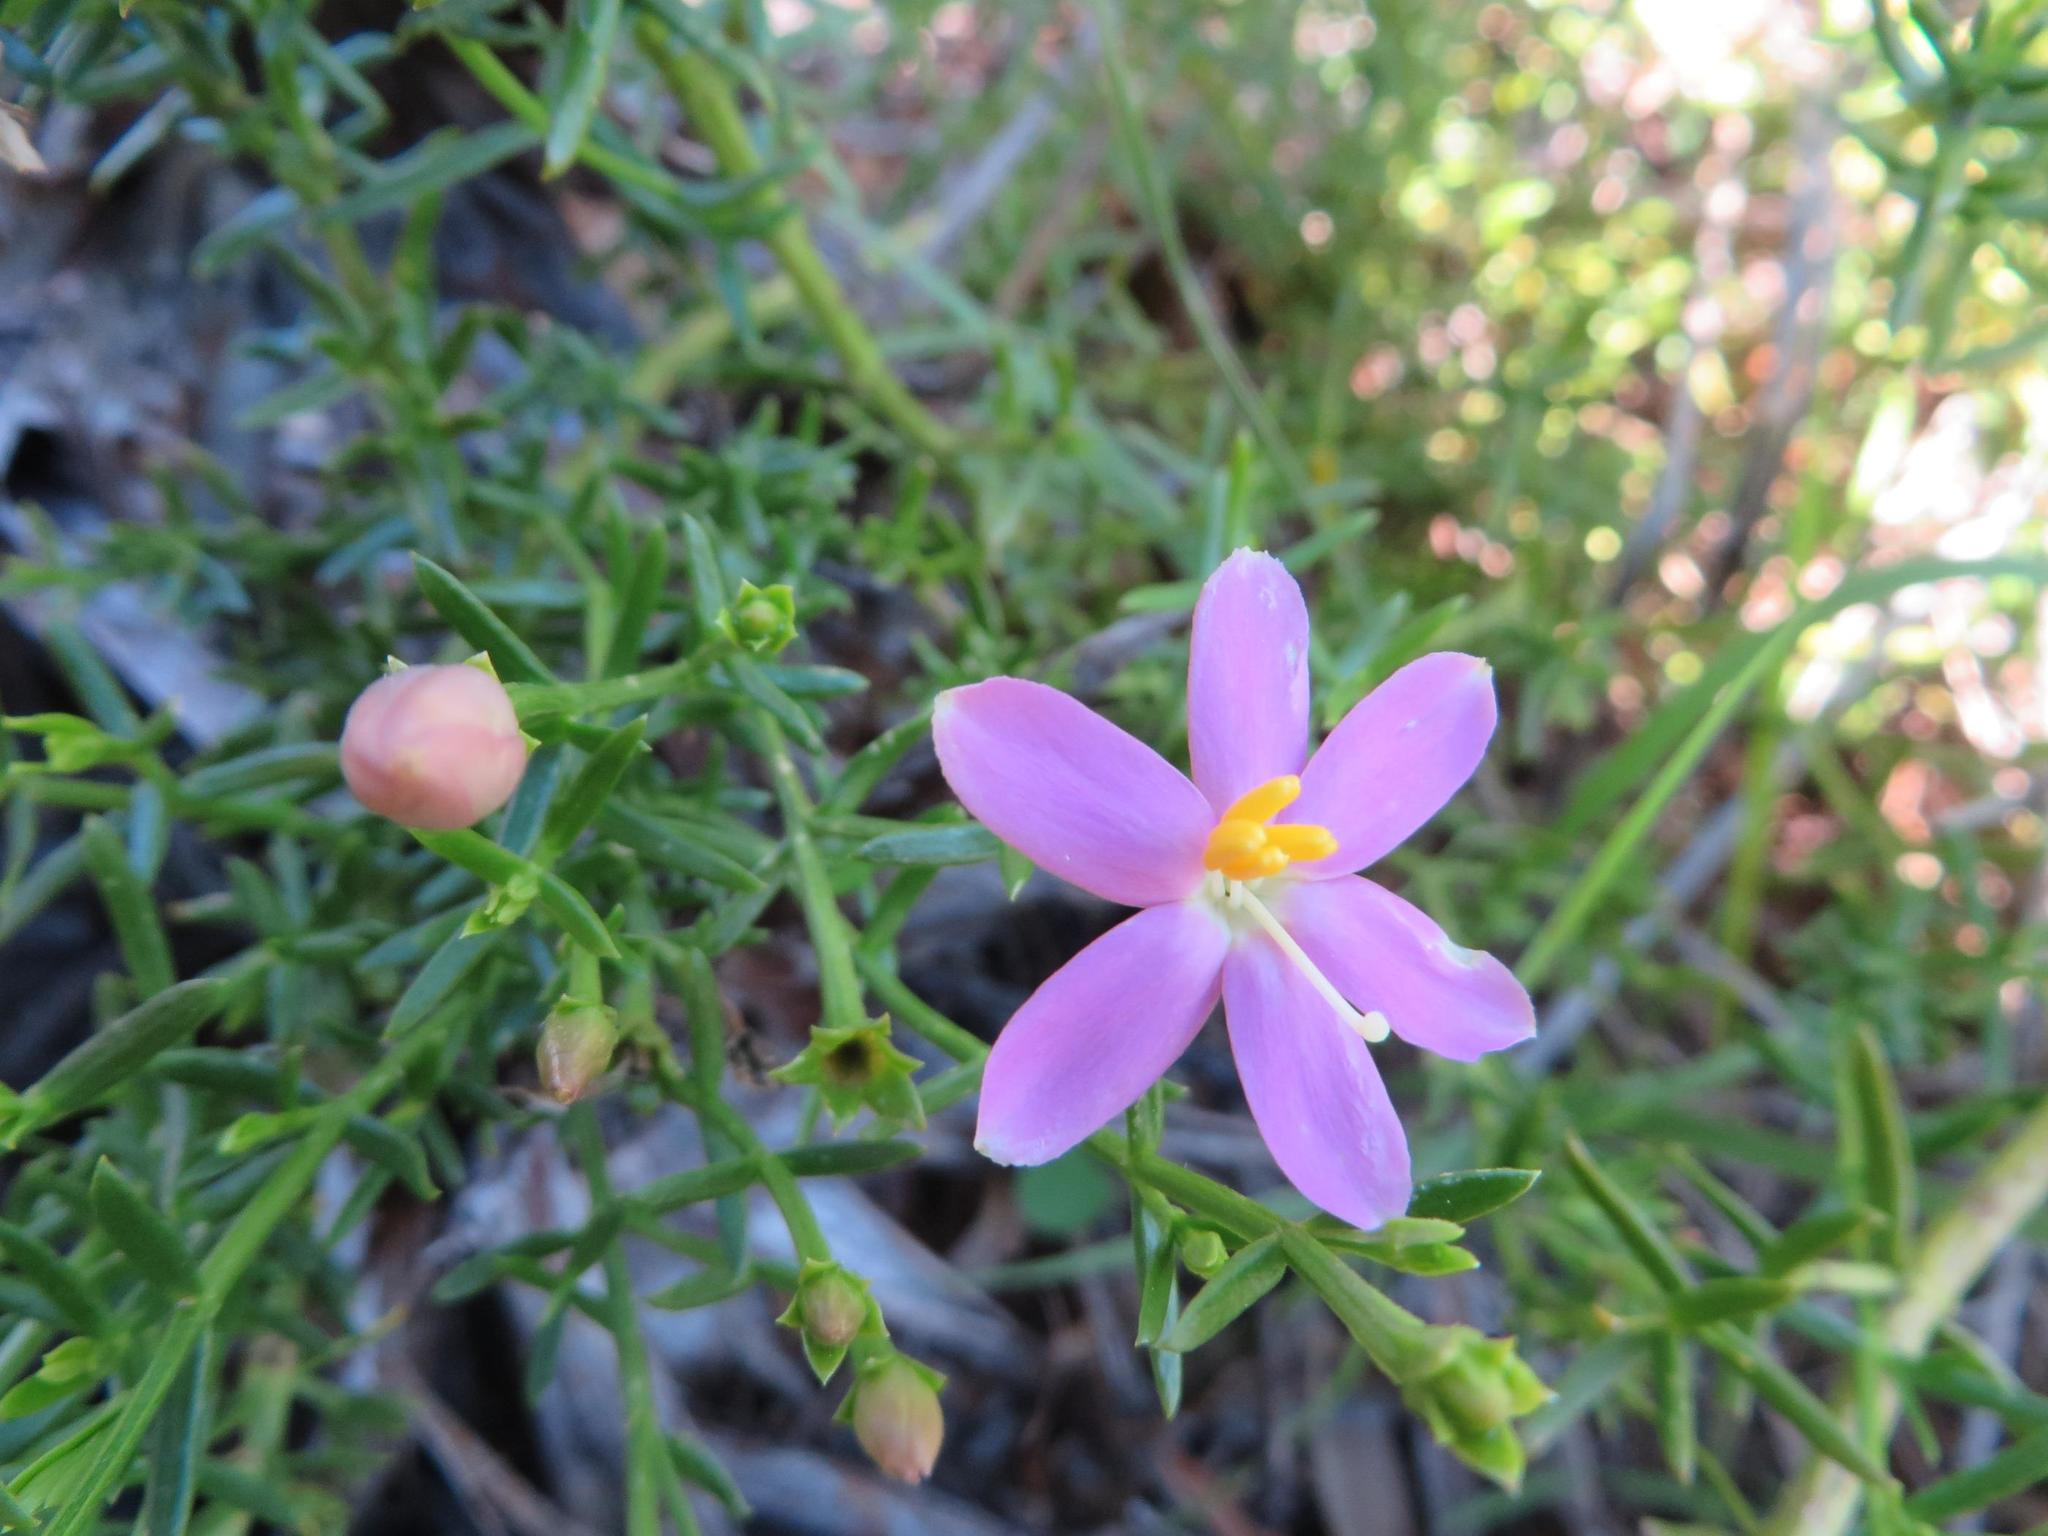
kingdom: Plantae
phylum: Tracheophyta
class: Magnoliopsida
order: Gentianales
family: Gentianaceae
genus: Chironia
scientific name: Chironia baccifera
